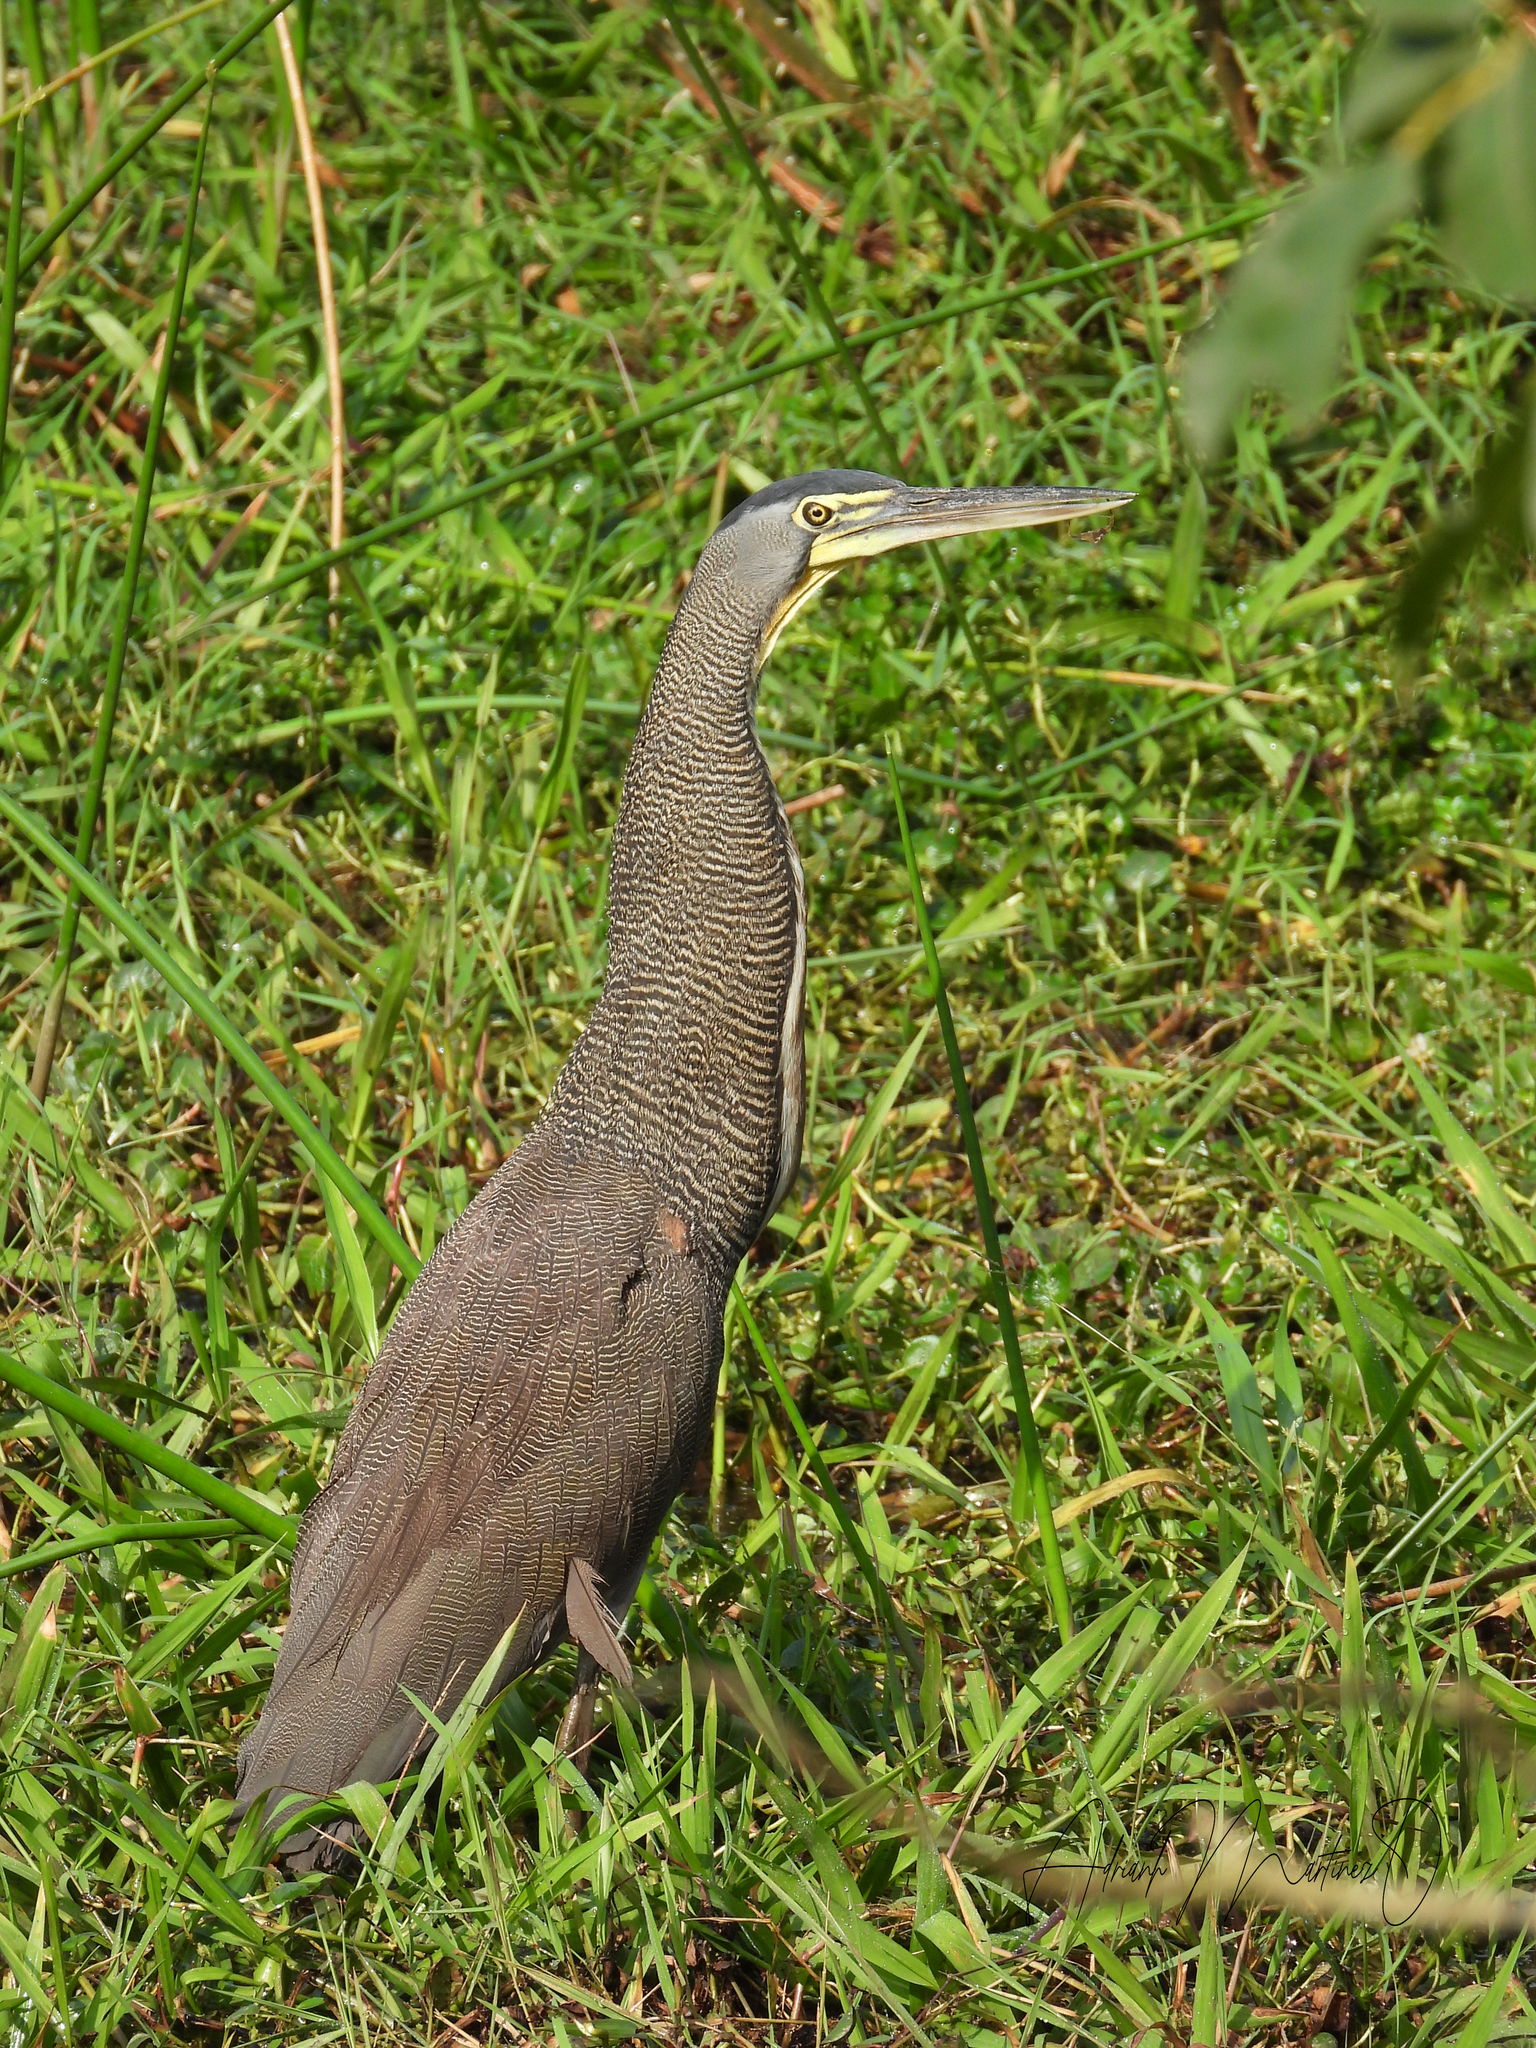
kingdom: Animalia
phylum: Chordata
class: Aves
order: Pelecaniformes
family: Ardeidae
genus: Tigrisoma
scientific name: Tigrisoma mexicanum
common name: Bare-throated tiger-heron
